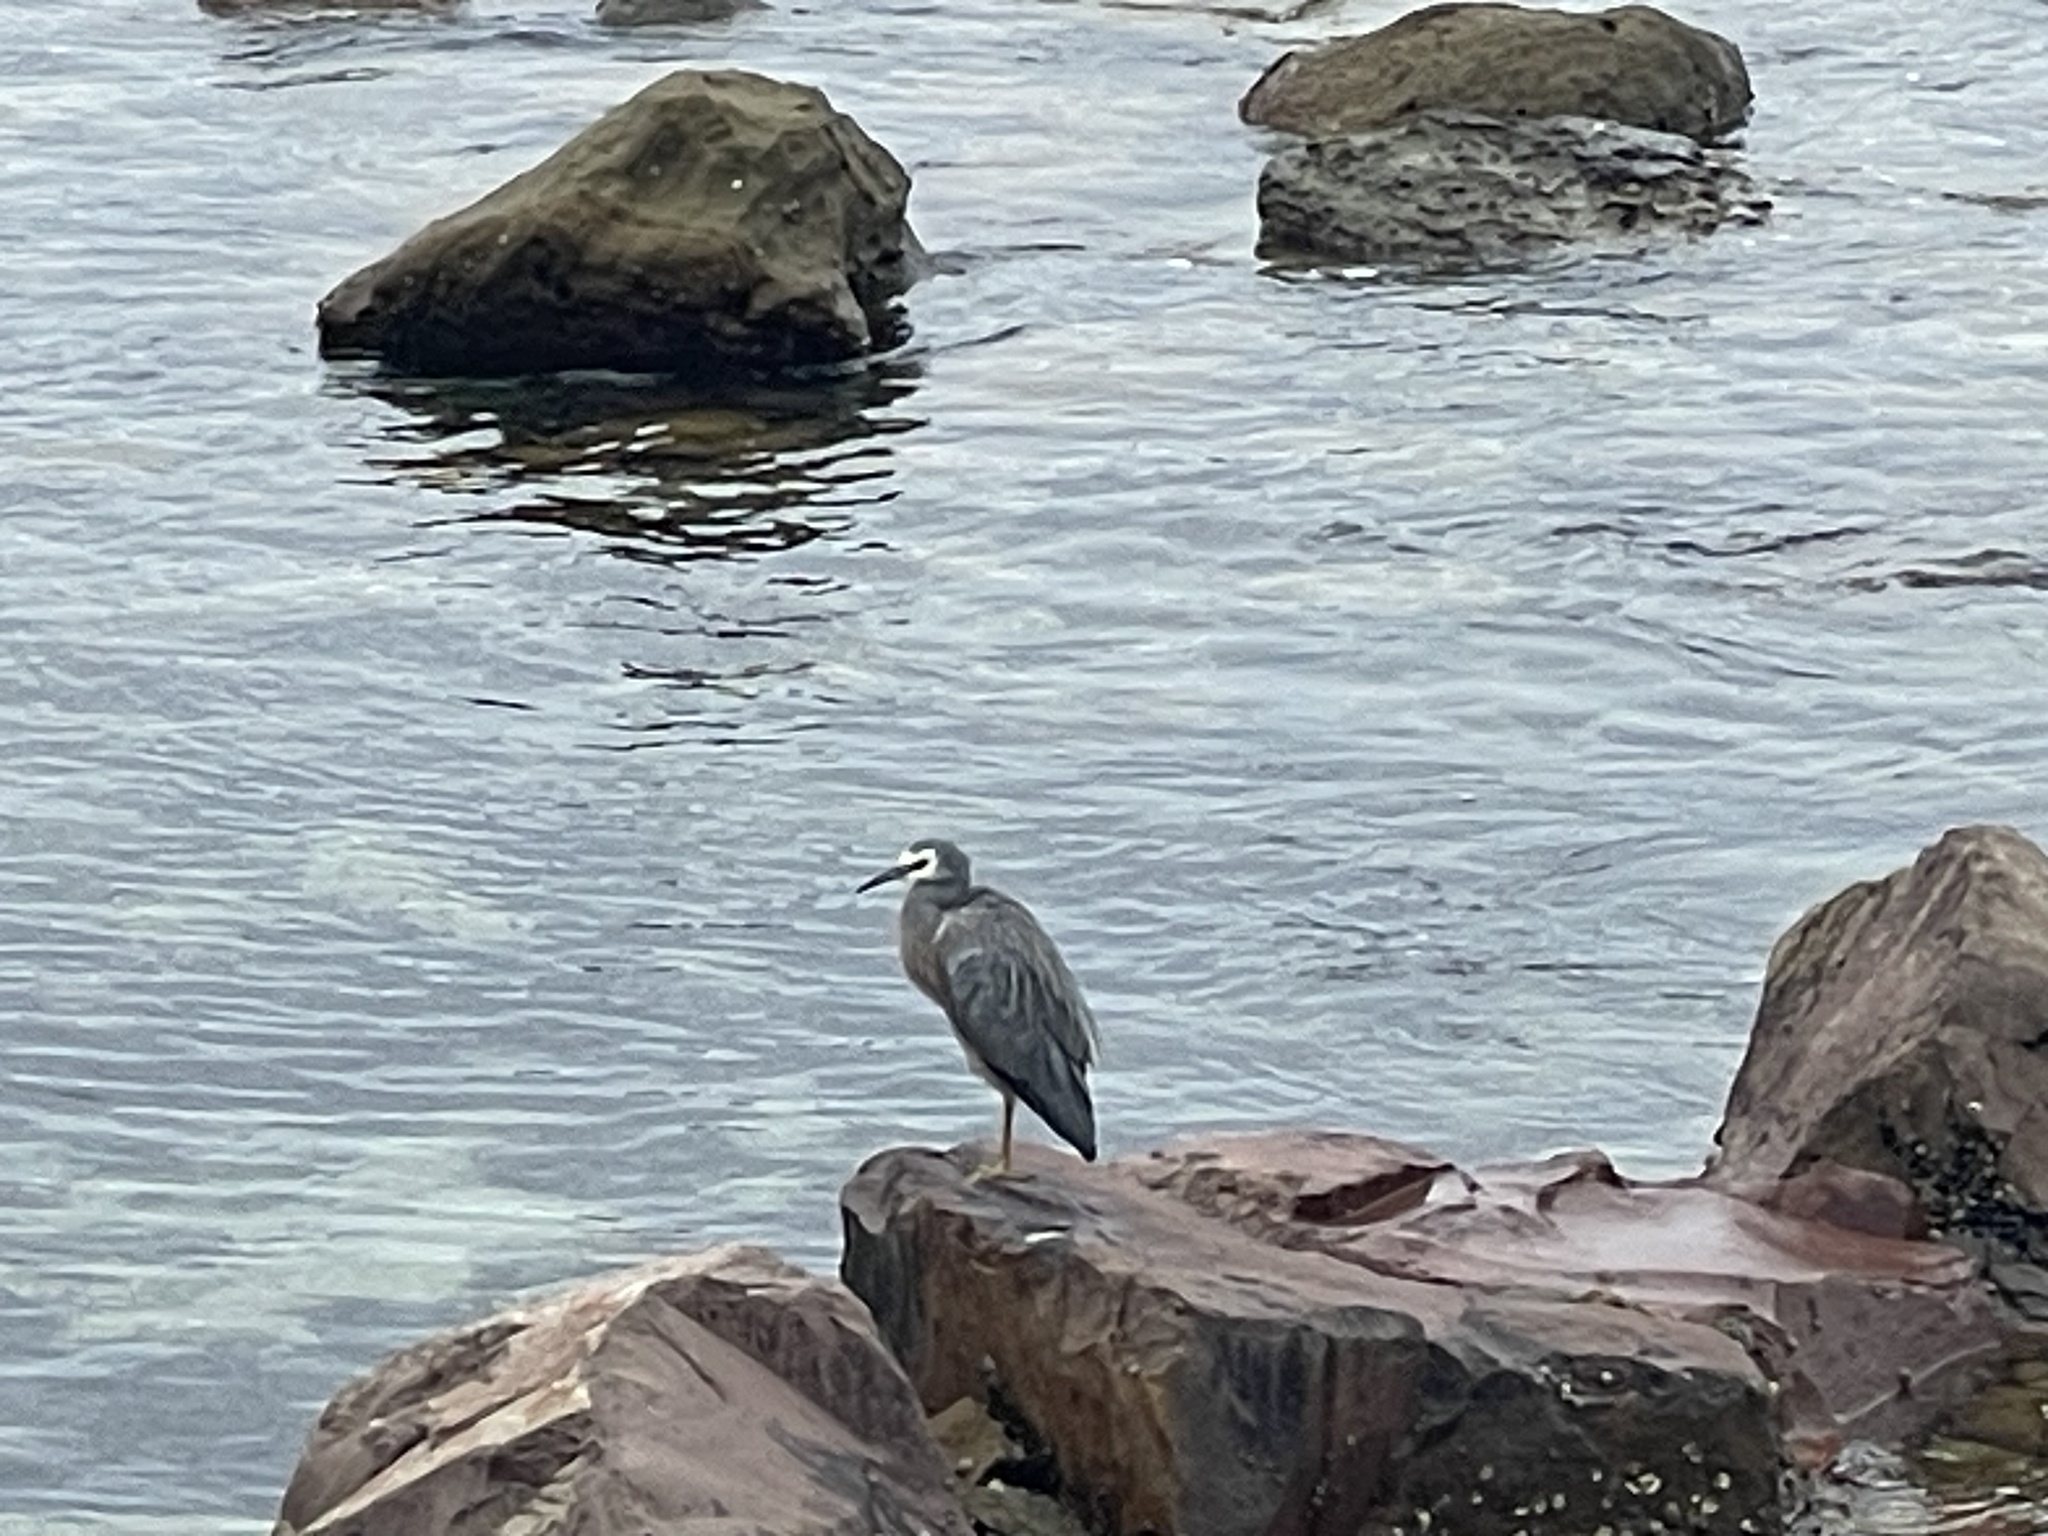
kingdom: Animalia
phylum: Chordata
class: Aves
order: Pelecaniformes
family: Ardeidae
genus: Egretta
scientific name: Egretta novaehollandiae
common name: White-faced heron
